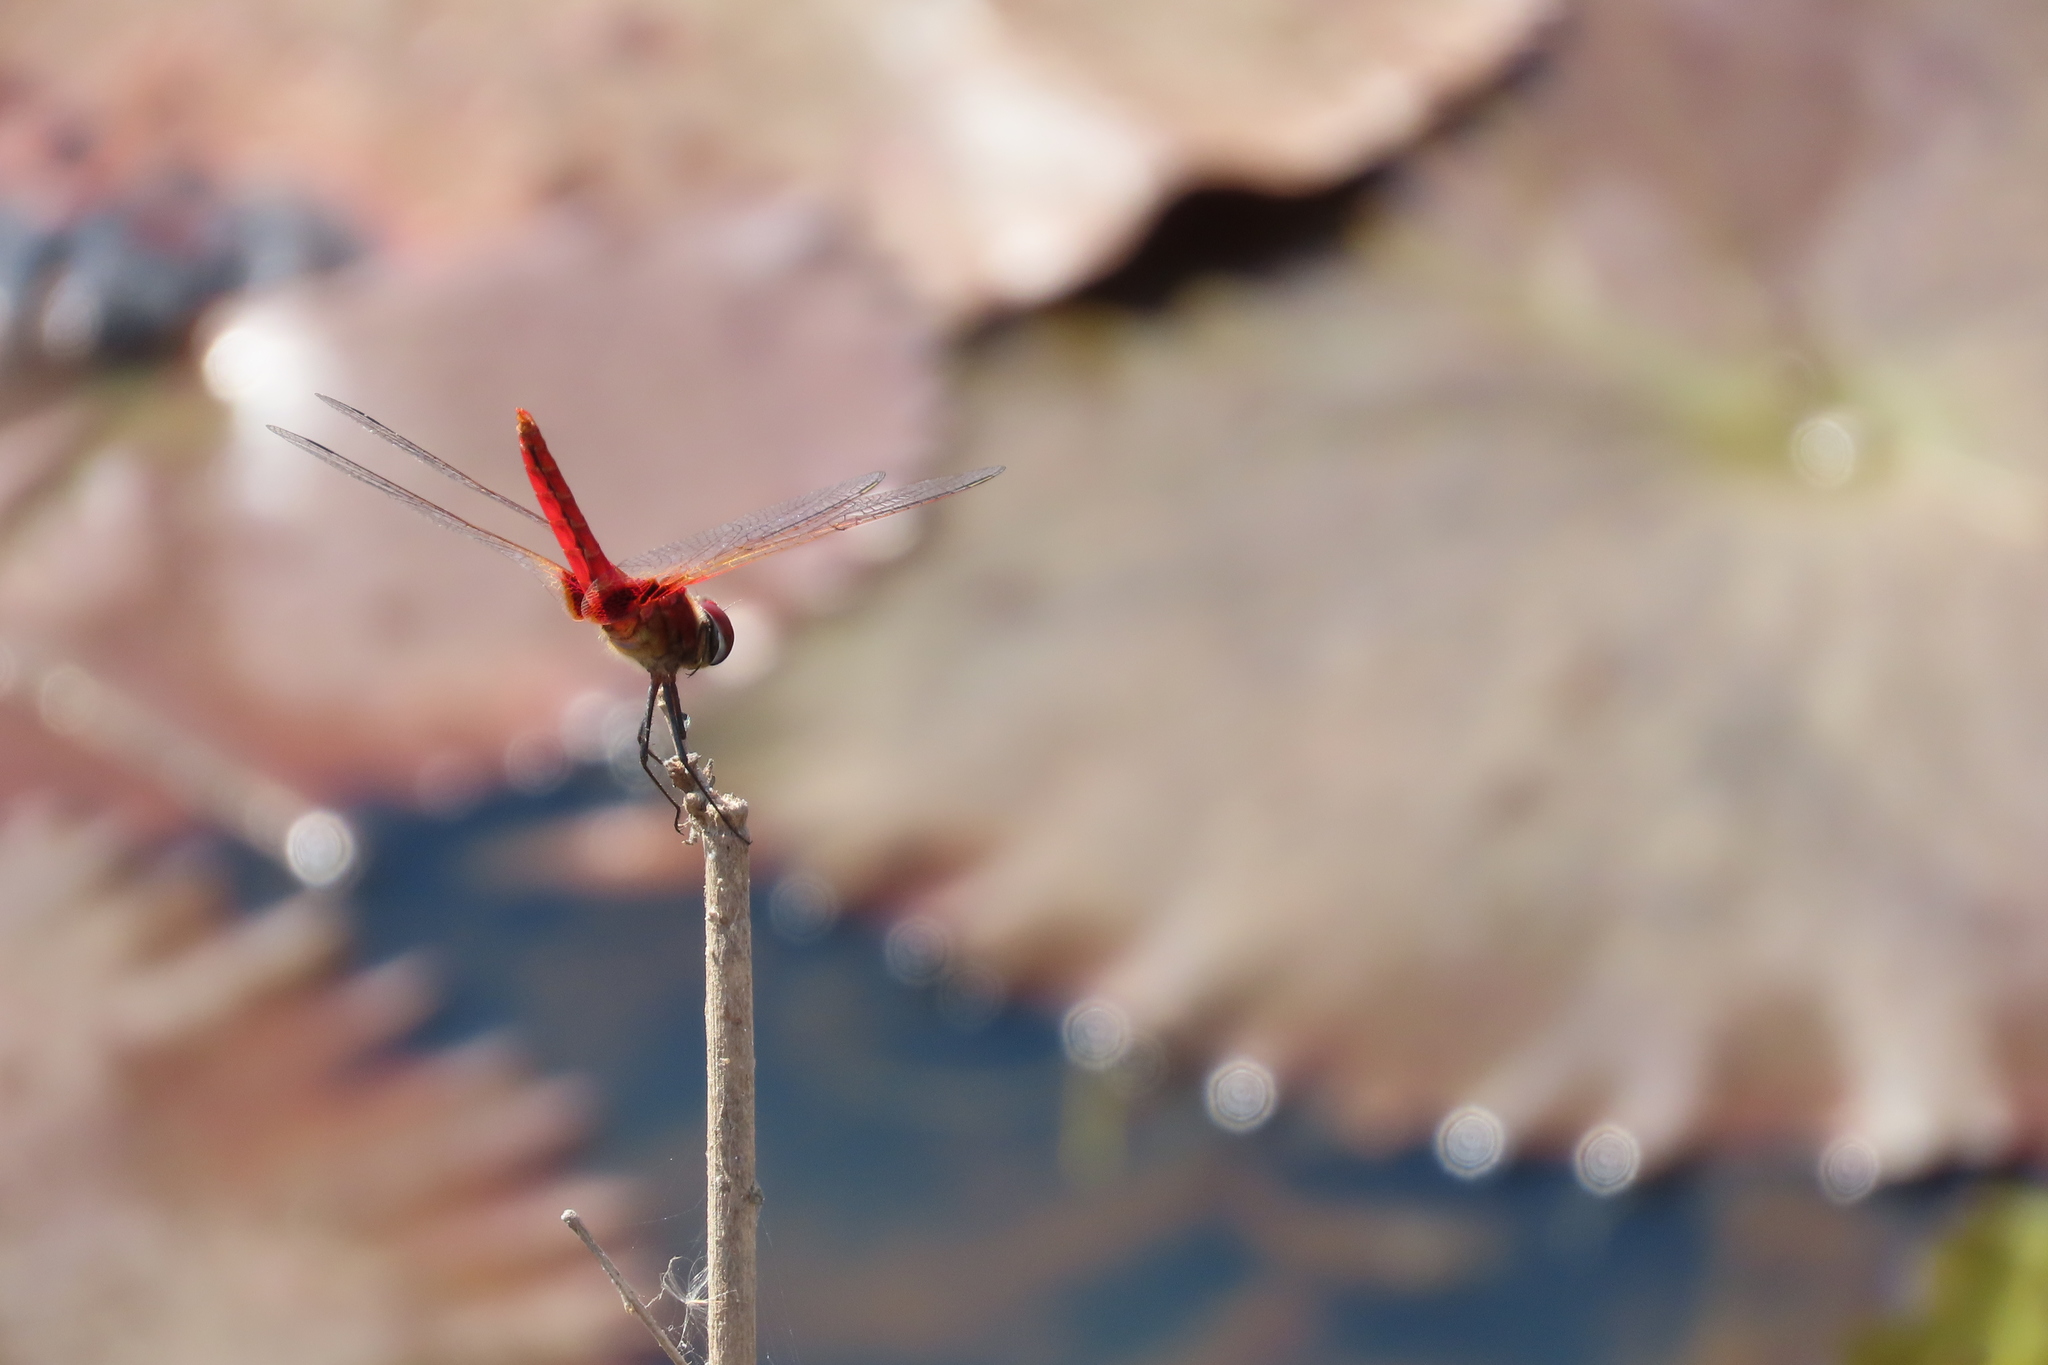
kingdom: Animalia
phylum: Arthropoda
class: Insecta
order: Odonata
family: Libellulidae
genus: Urothemis
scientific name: Urothemis signata
